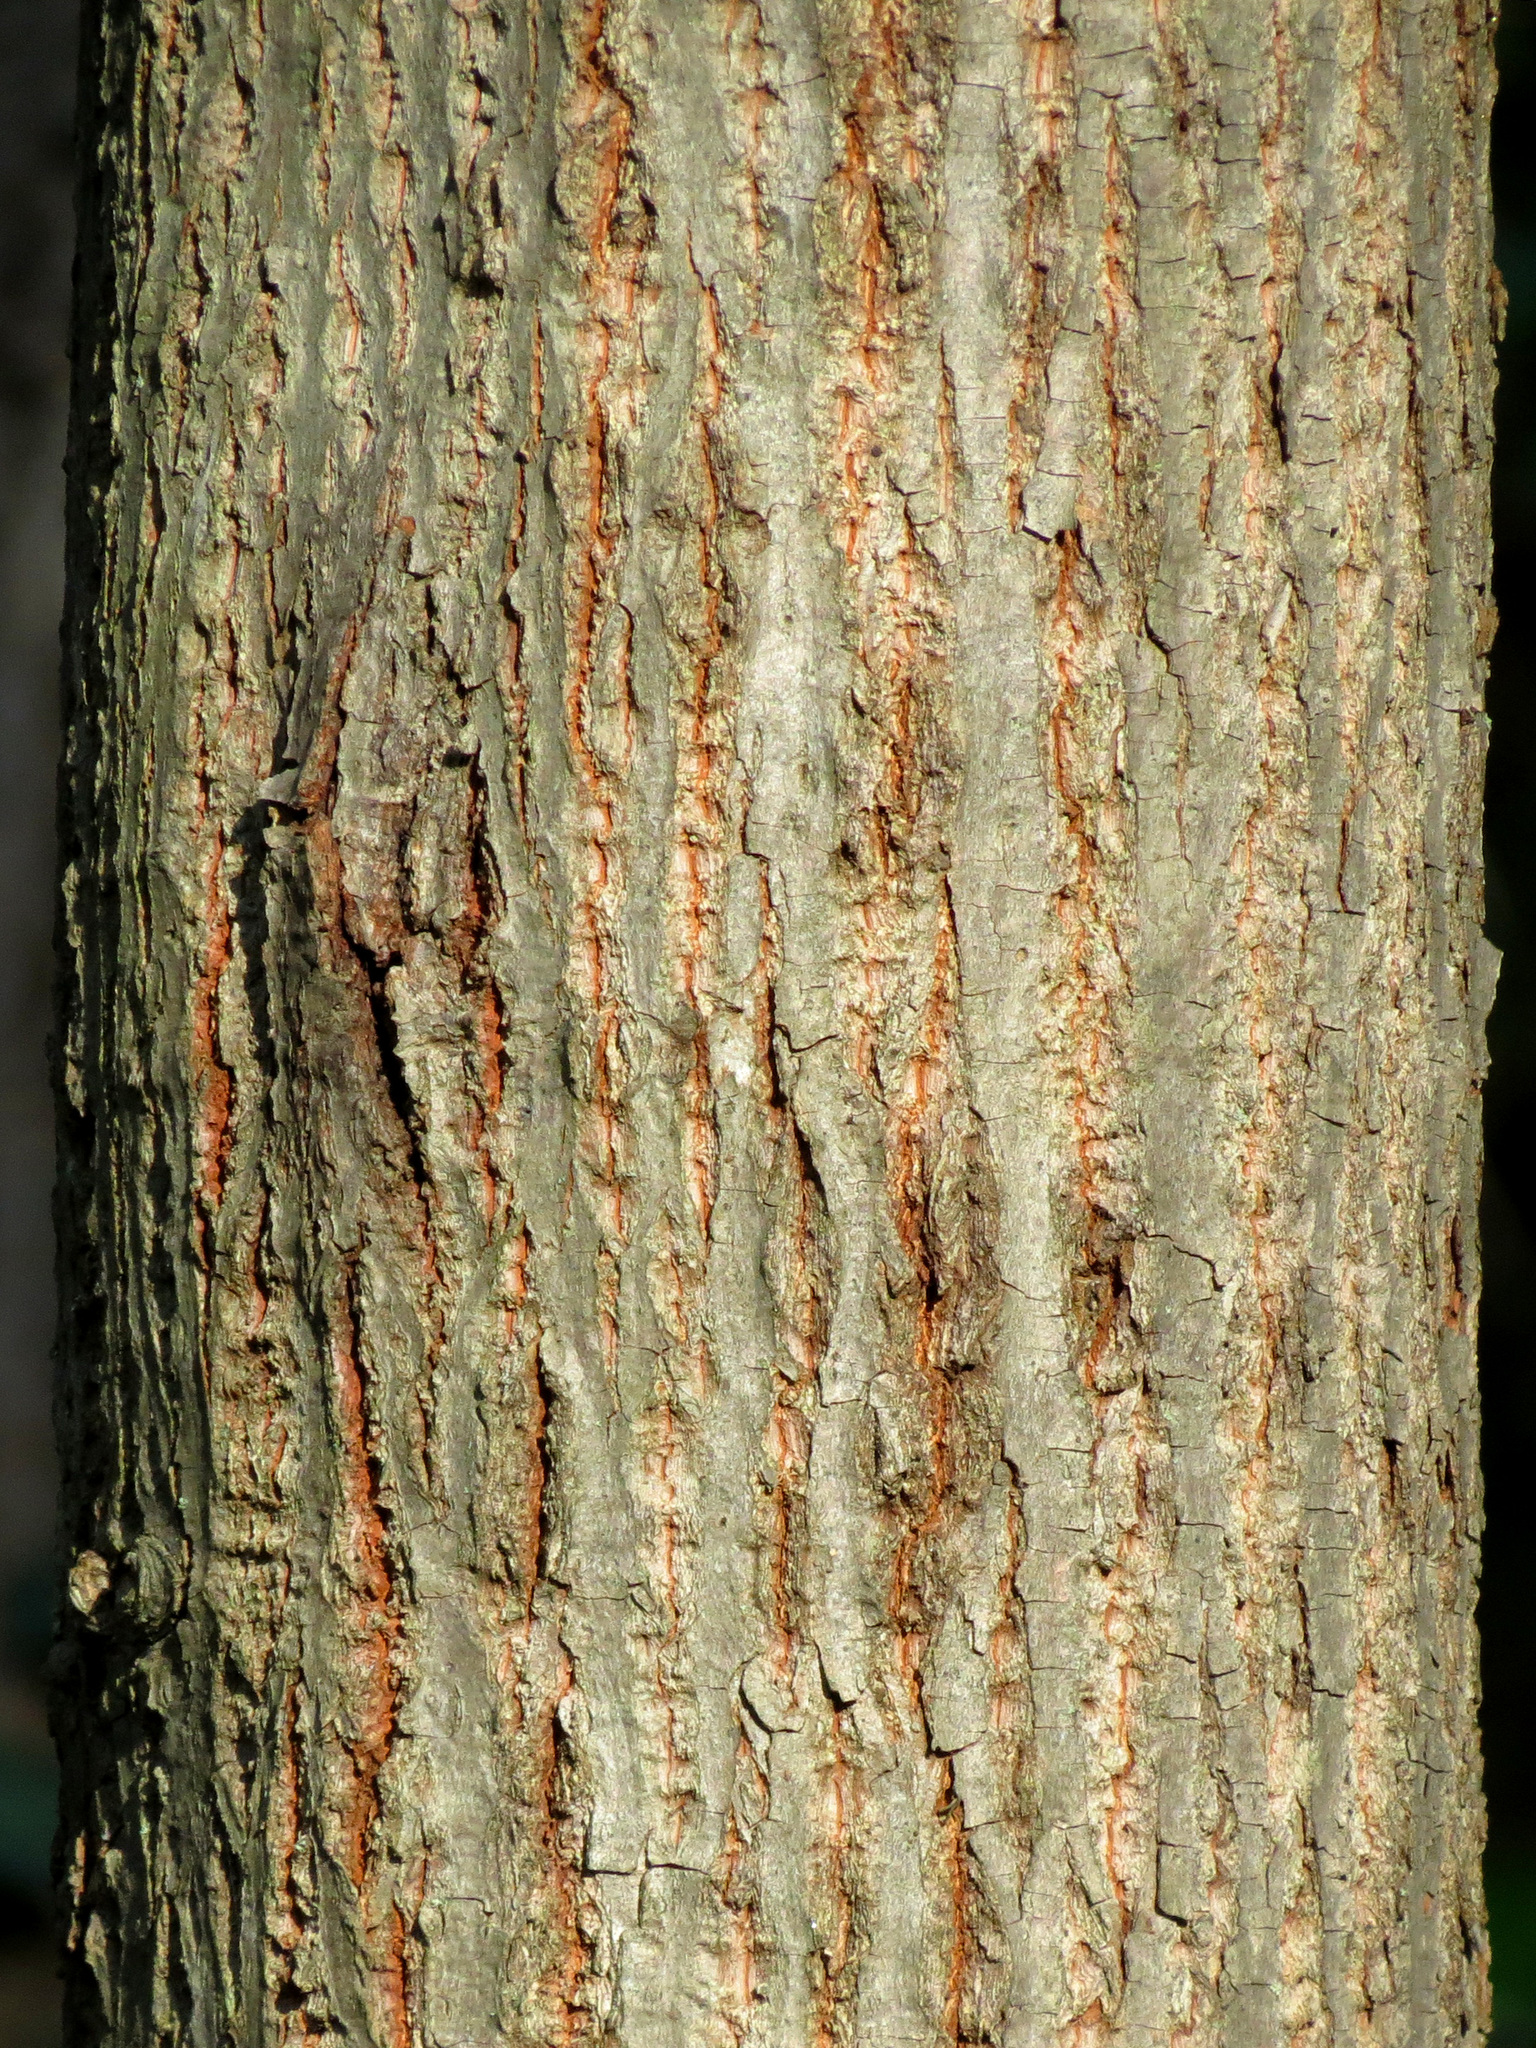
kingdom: Plantae
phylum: Tracheophyta
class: Magnoliopsida
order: Malvales
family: Malvaceae
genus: Tilia
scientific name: Tilia americana
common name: Basswood
